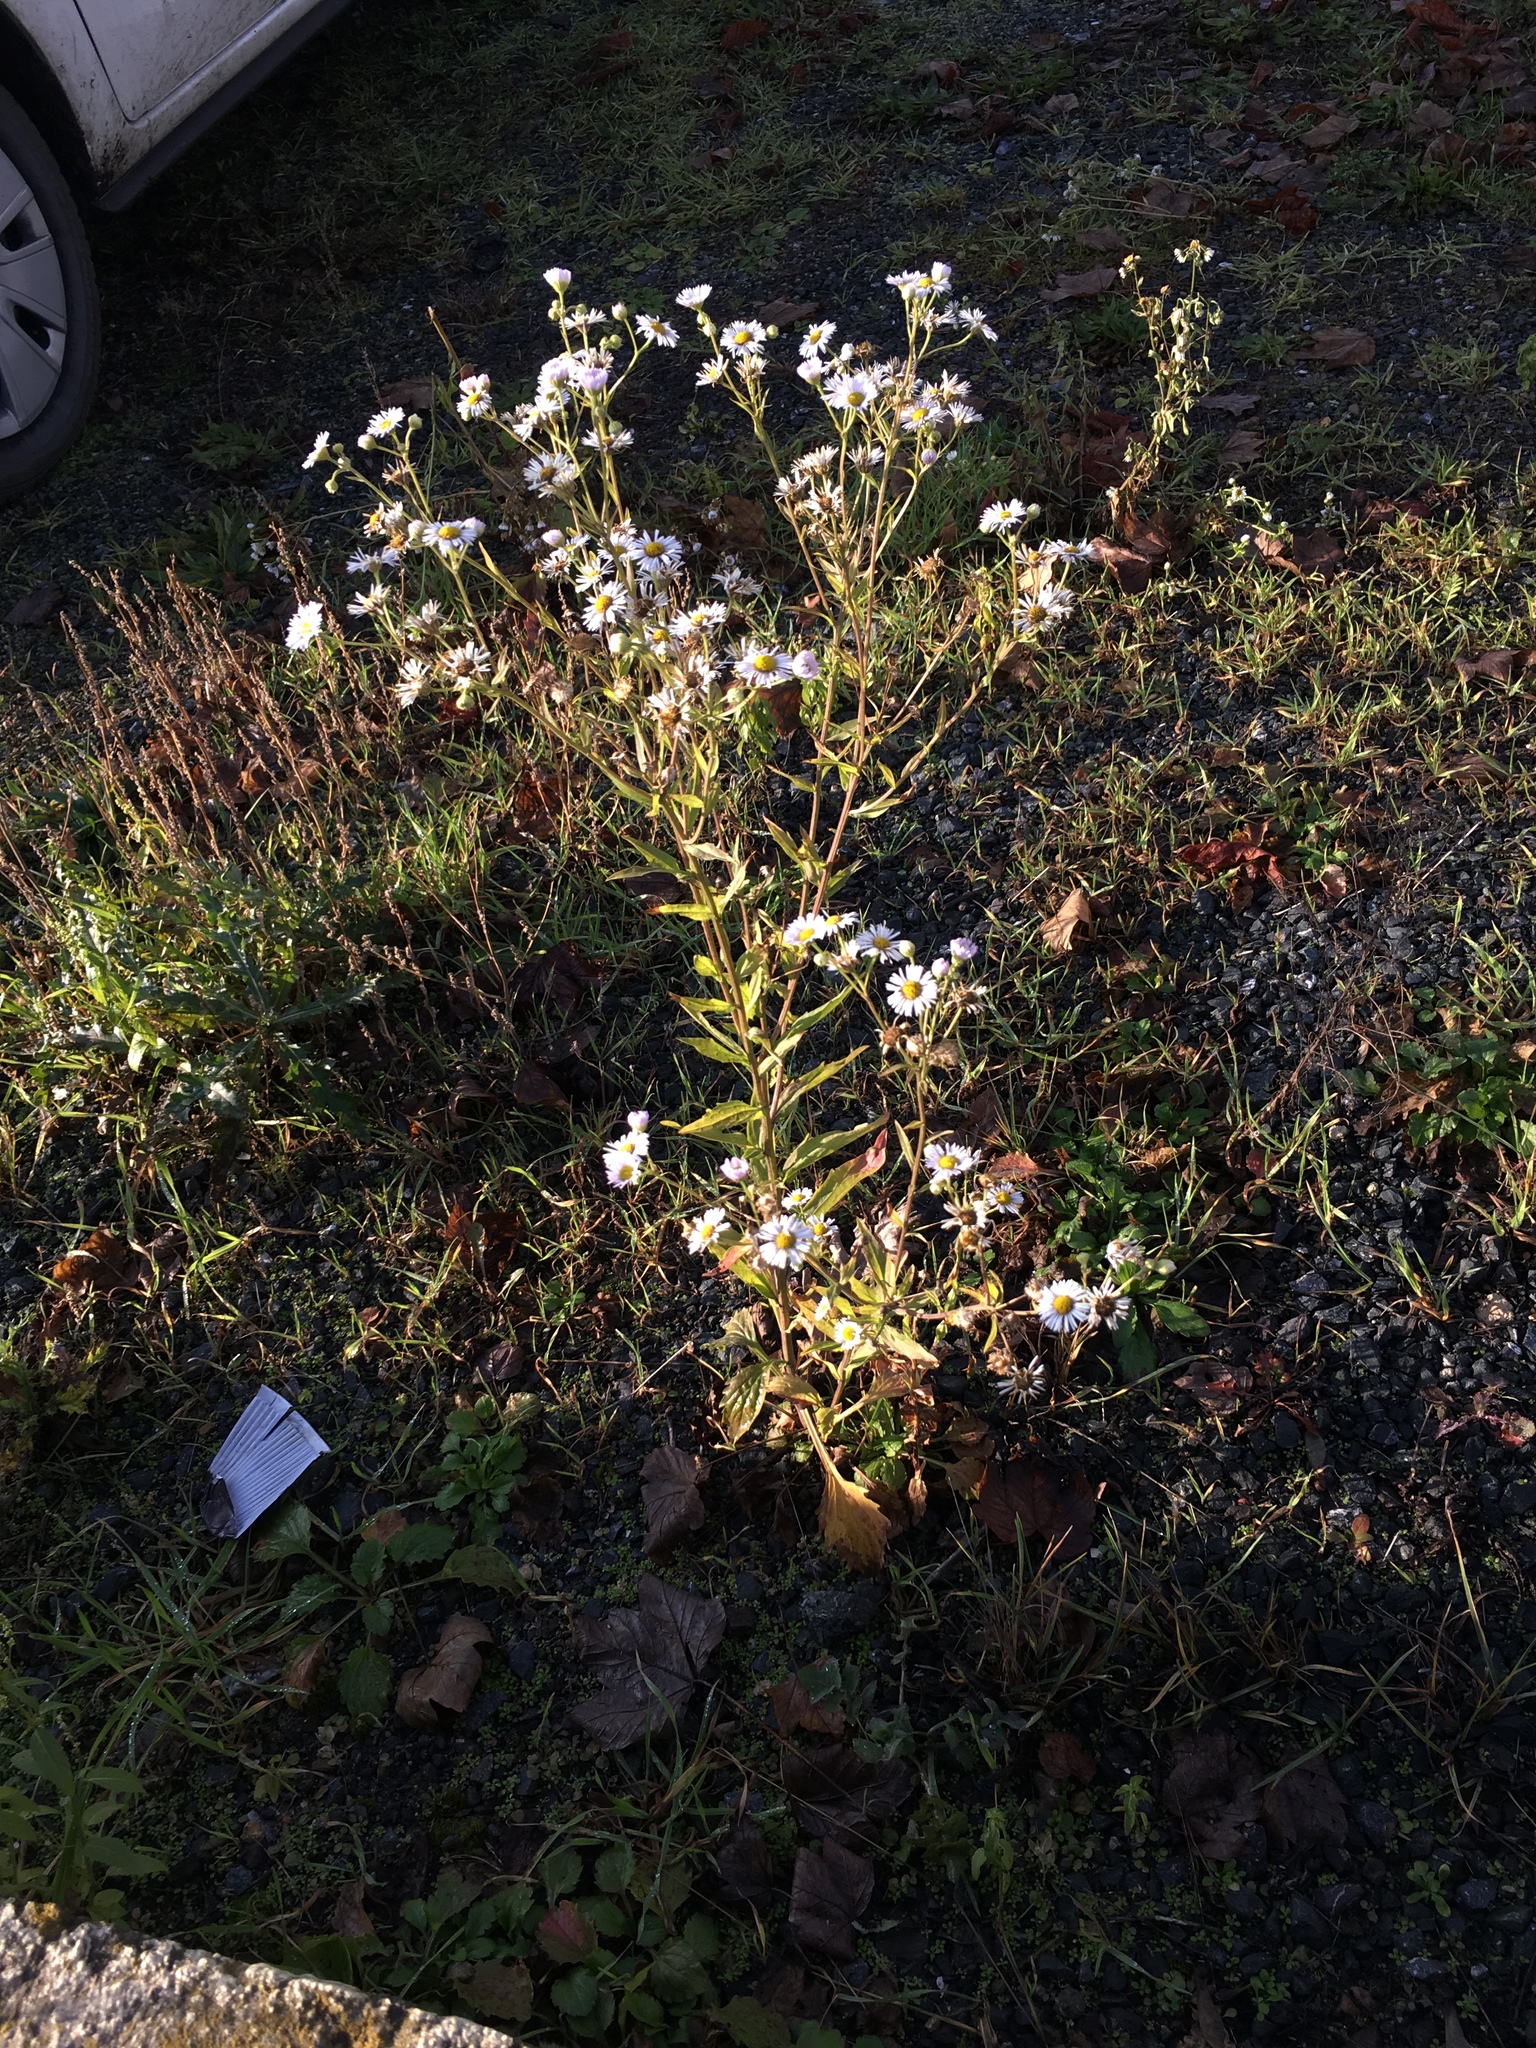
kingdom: Plantae
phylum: Tracheophyta
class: Magnoliopsida
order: Asterales
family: Asteraceae
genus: Erigeron
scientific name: Erigeron annuus
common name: Tall fleabane
